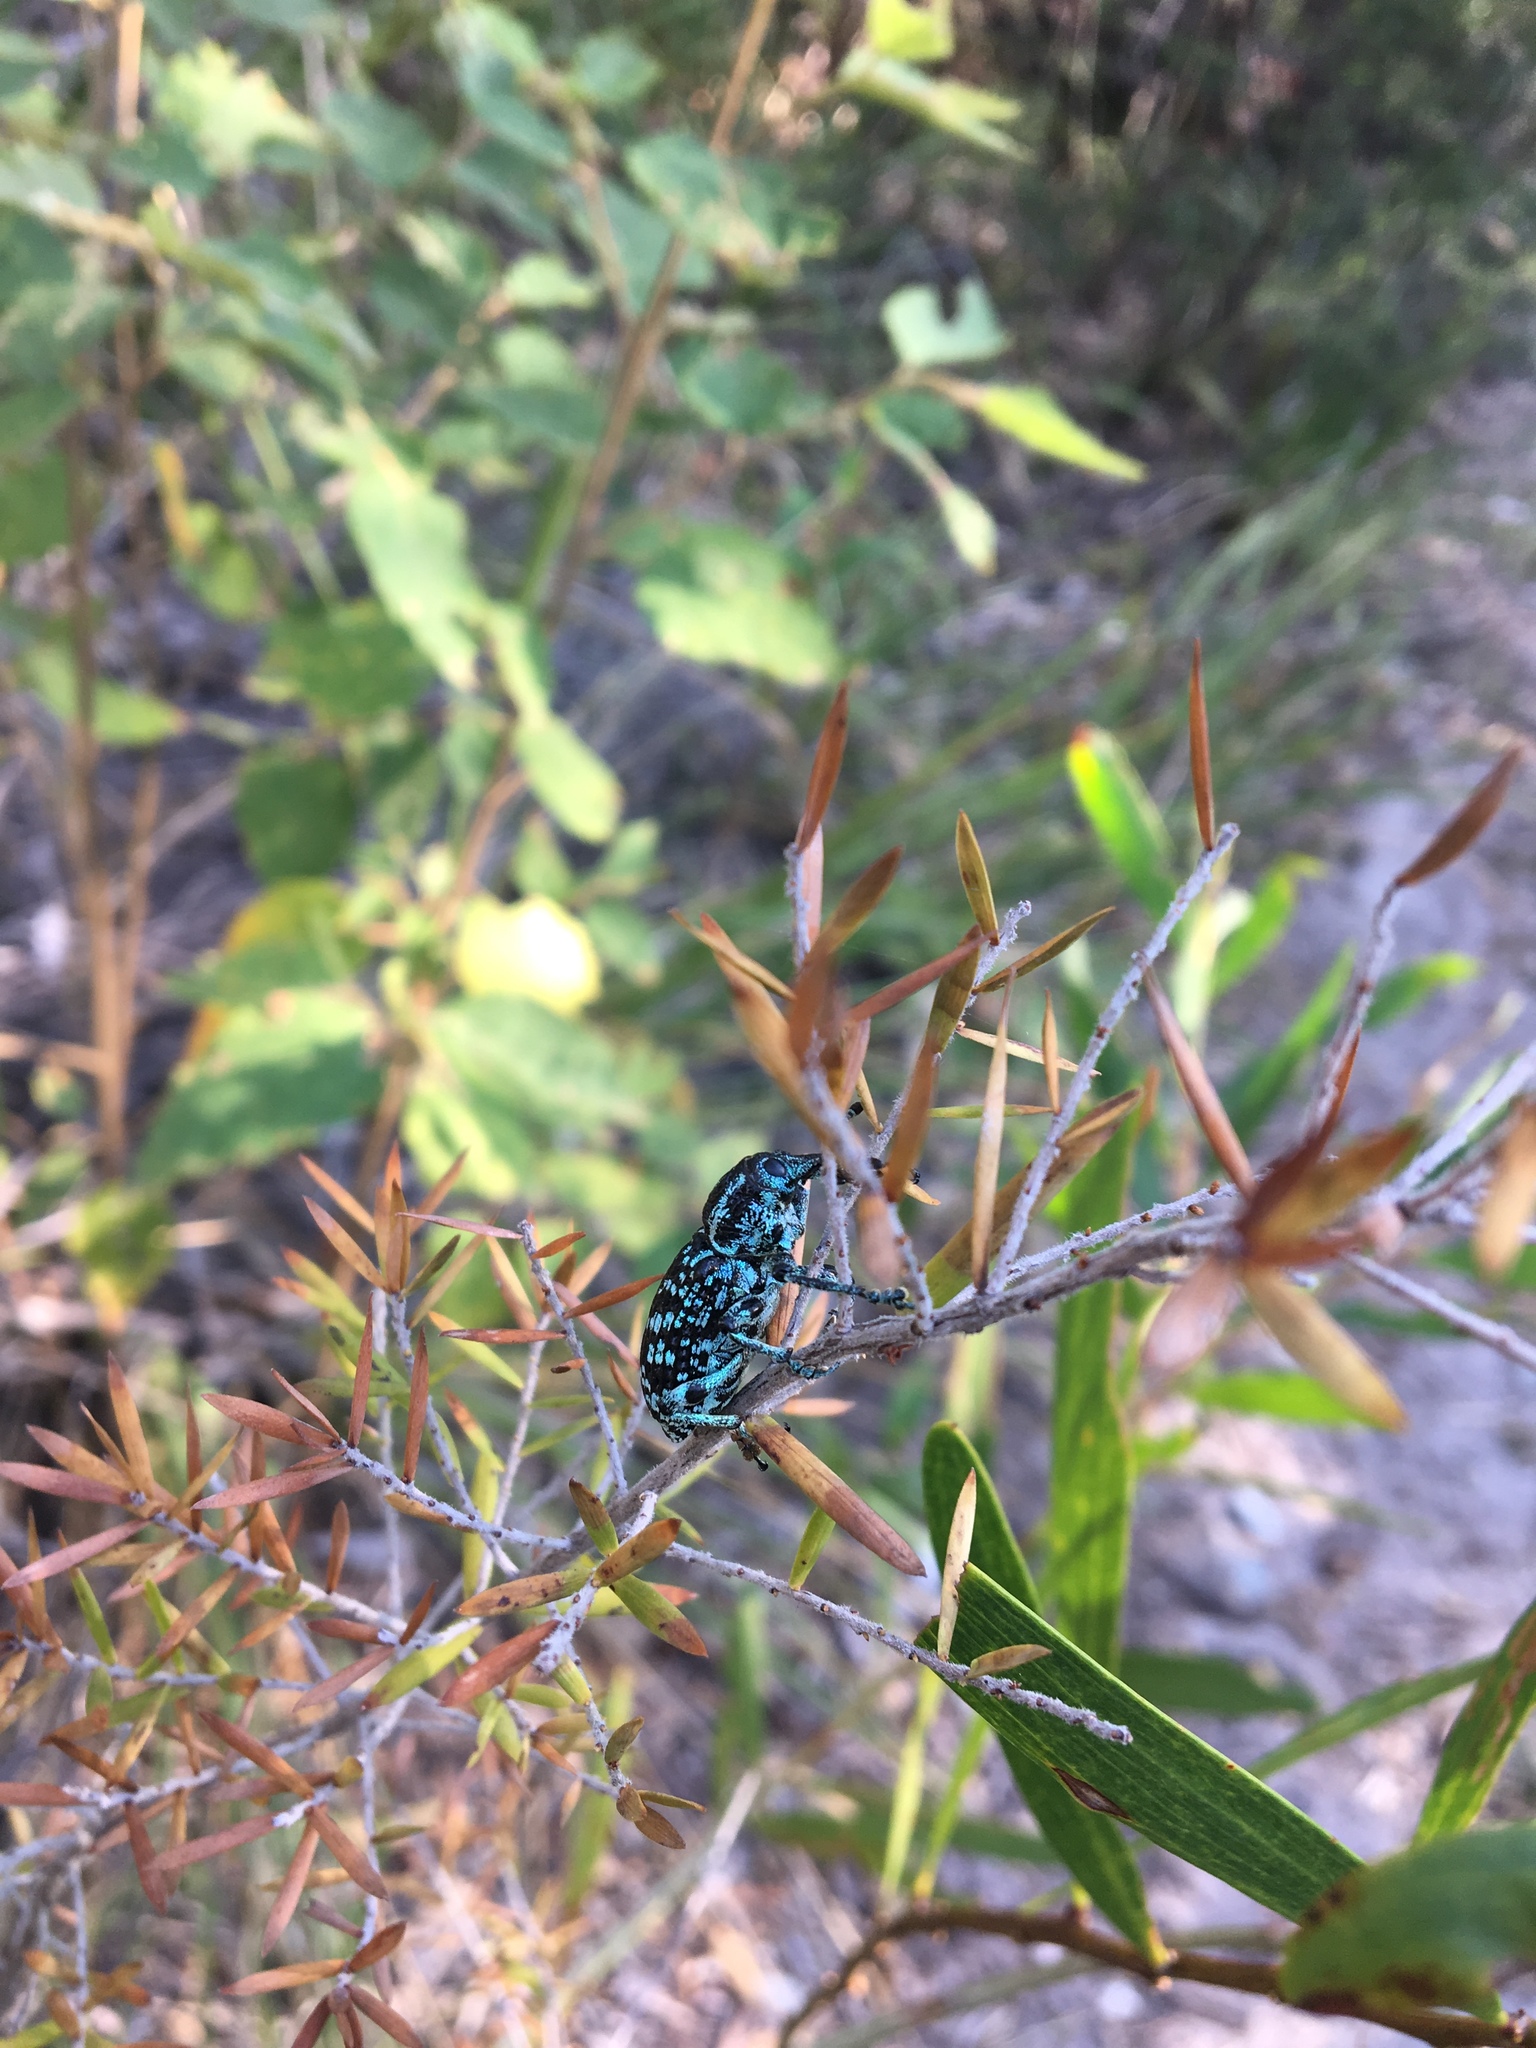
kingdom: Animalia
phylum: Arthropoda
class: Insecta
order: Coleoptera
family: Curculionidae
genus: Chrysolopus
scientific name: Chrysolopus spectabilis
